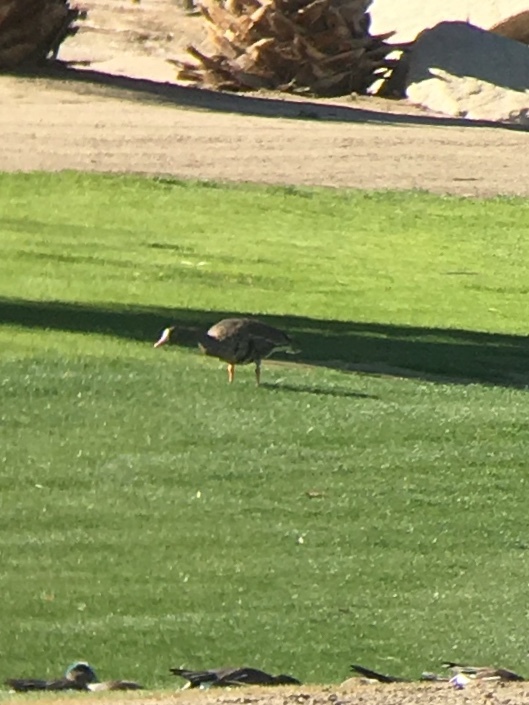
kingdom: Animalia
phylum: Chordata
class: Aves
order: Anseriformes
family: Anatidae
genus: Anser
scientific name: Anser albifrons
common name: Greater white-fronted goose
